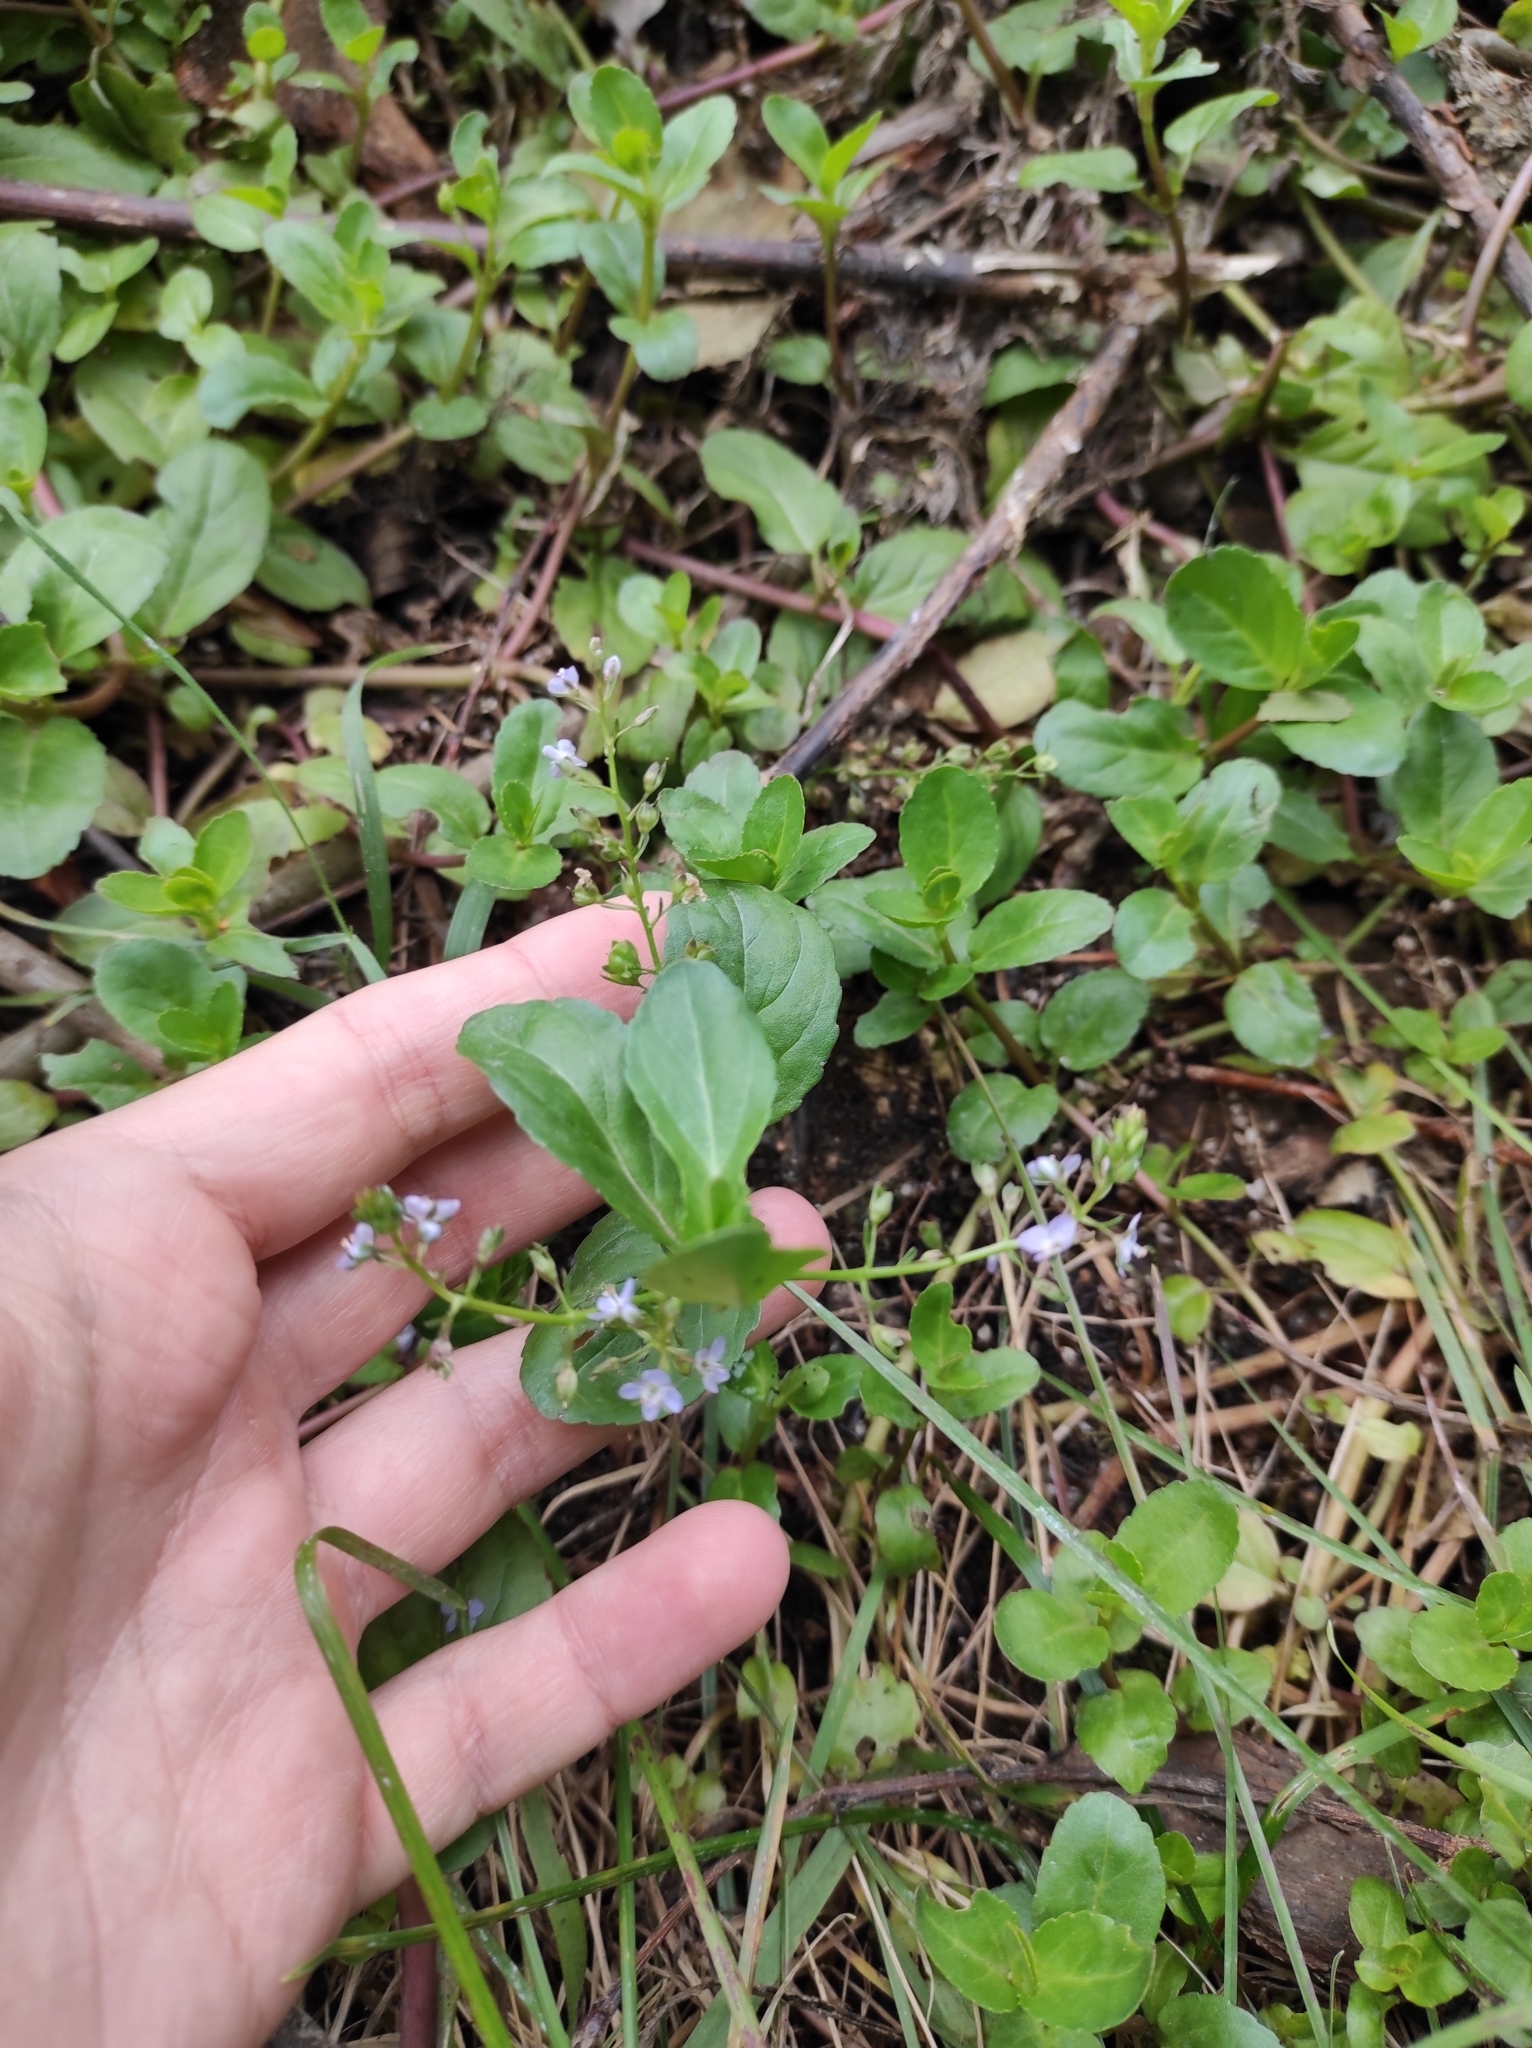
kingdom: Plantae
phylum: Tracheophyta
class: Magnoliopsida
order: Lamiales
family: Plantaginaceae
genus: Veronica
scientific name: Veronica beccabunga
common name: Brooklime
